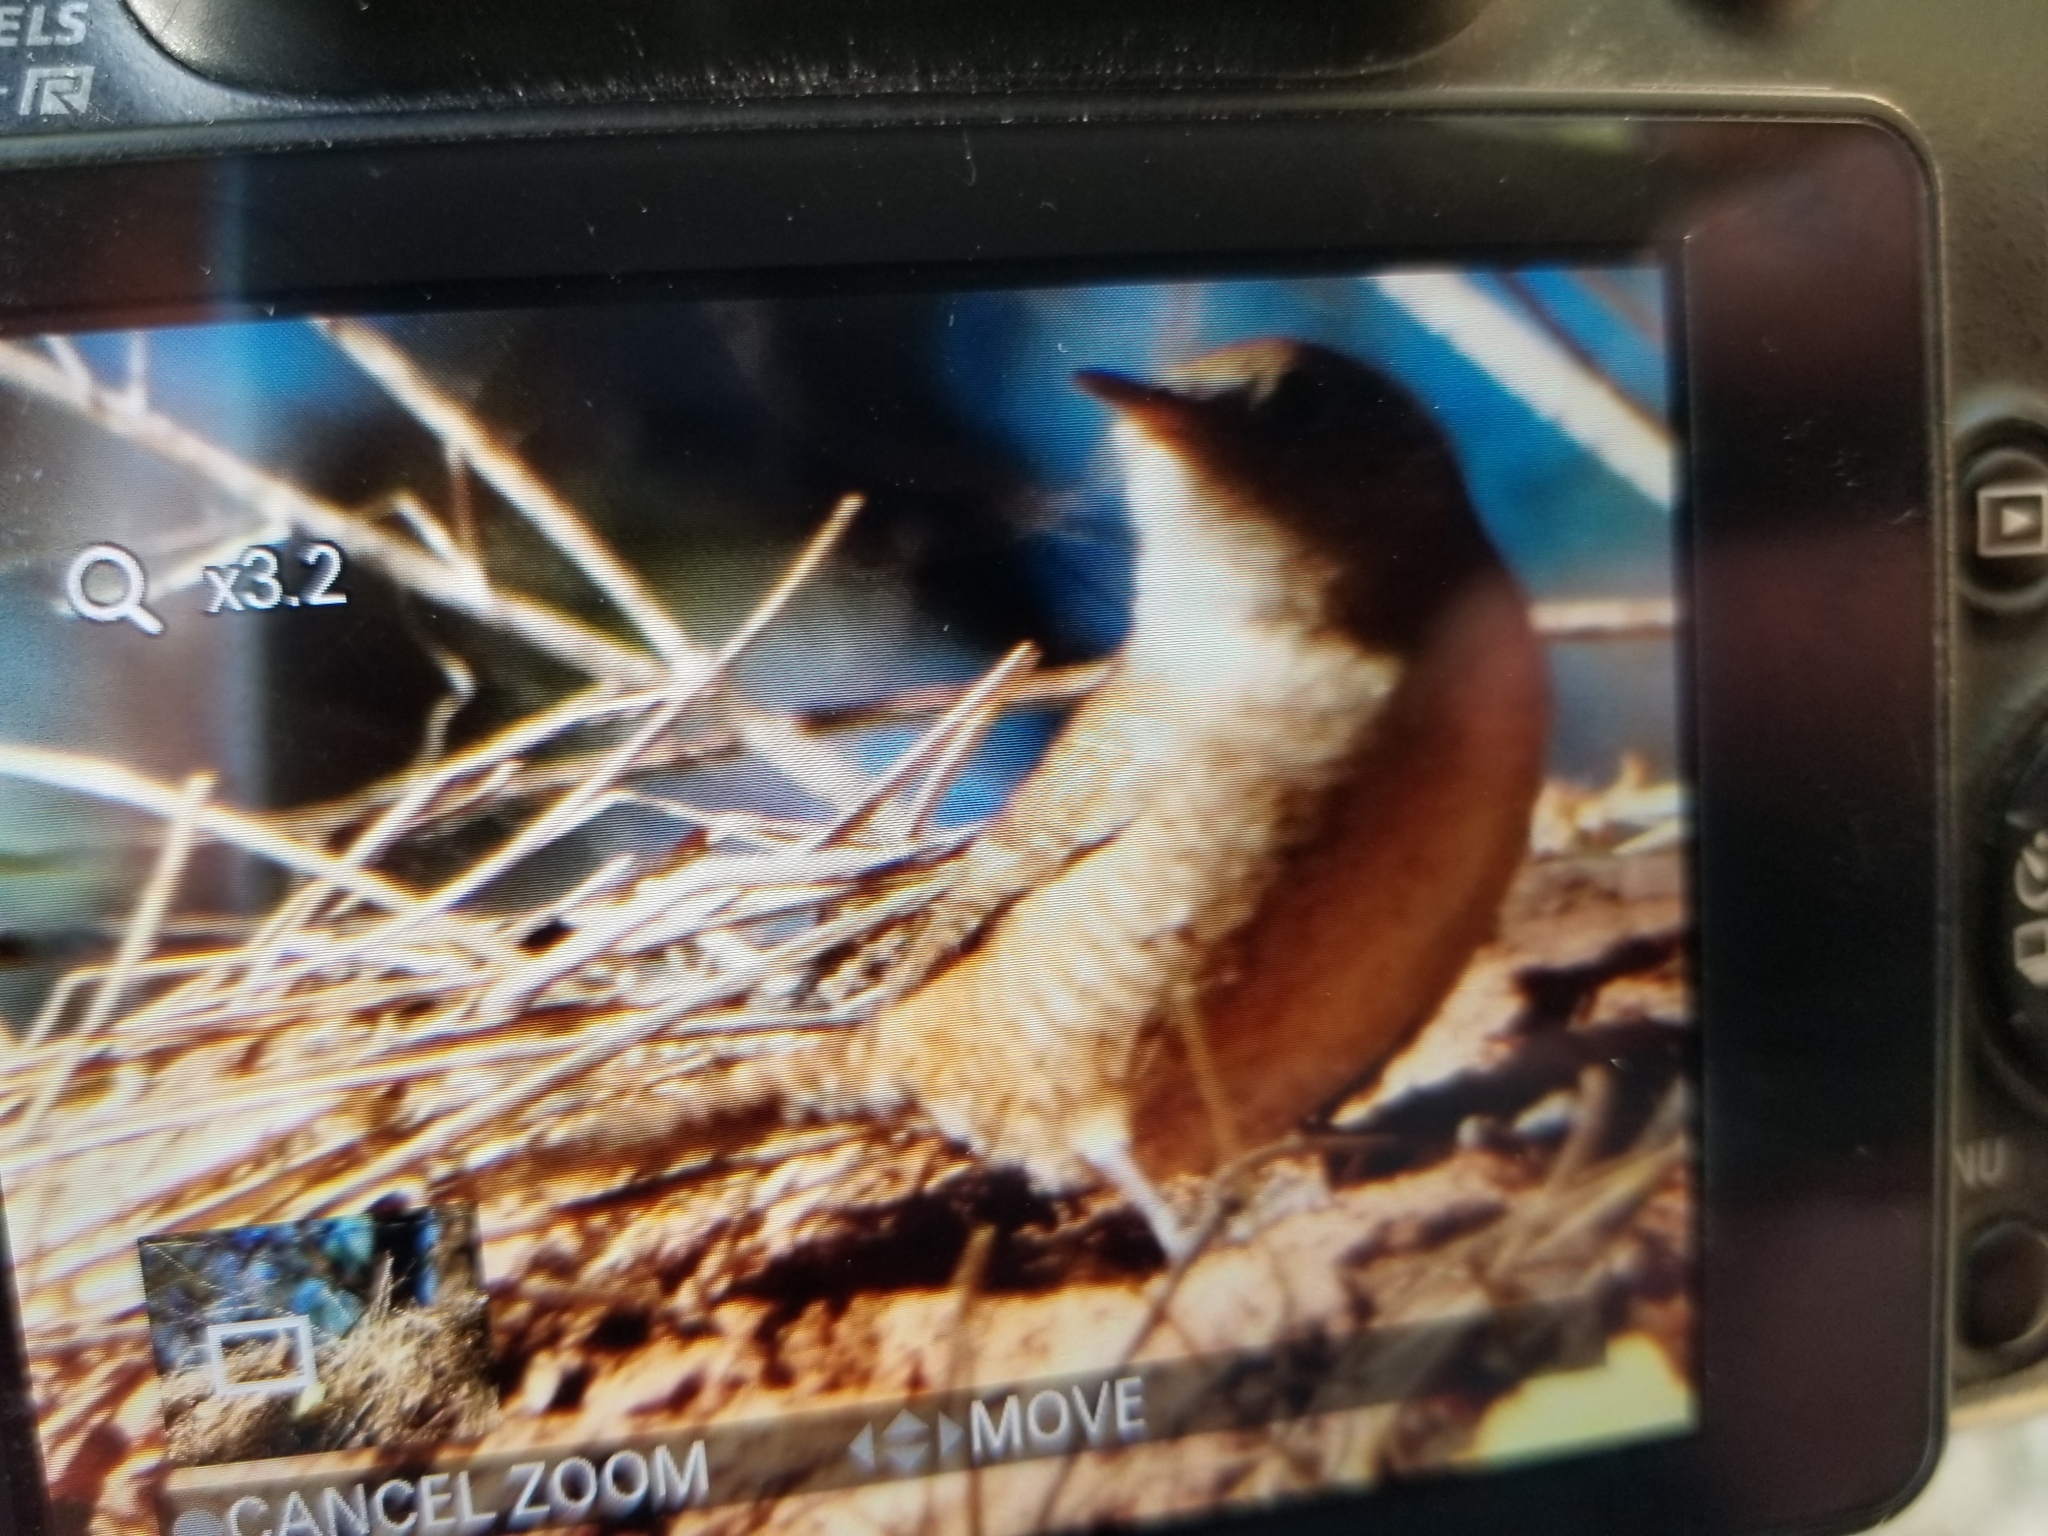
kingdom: Animalia
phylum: Chordata
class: Aves
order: Passeriformes
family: Troglodytidae
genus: Troglodytes
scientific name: Troglodytes aedon
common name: House wren
